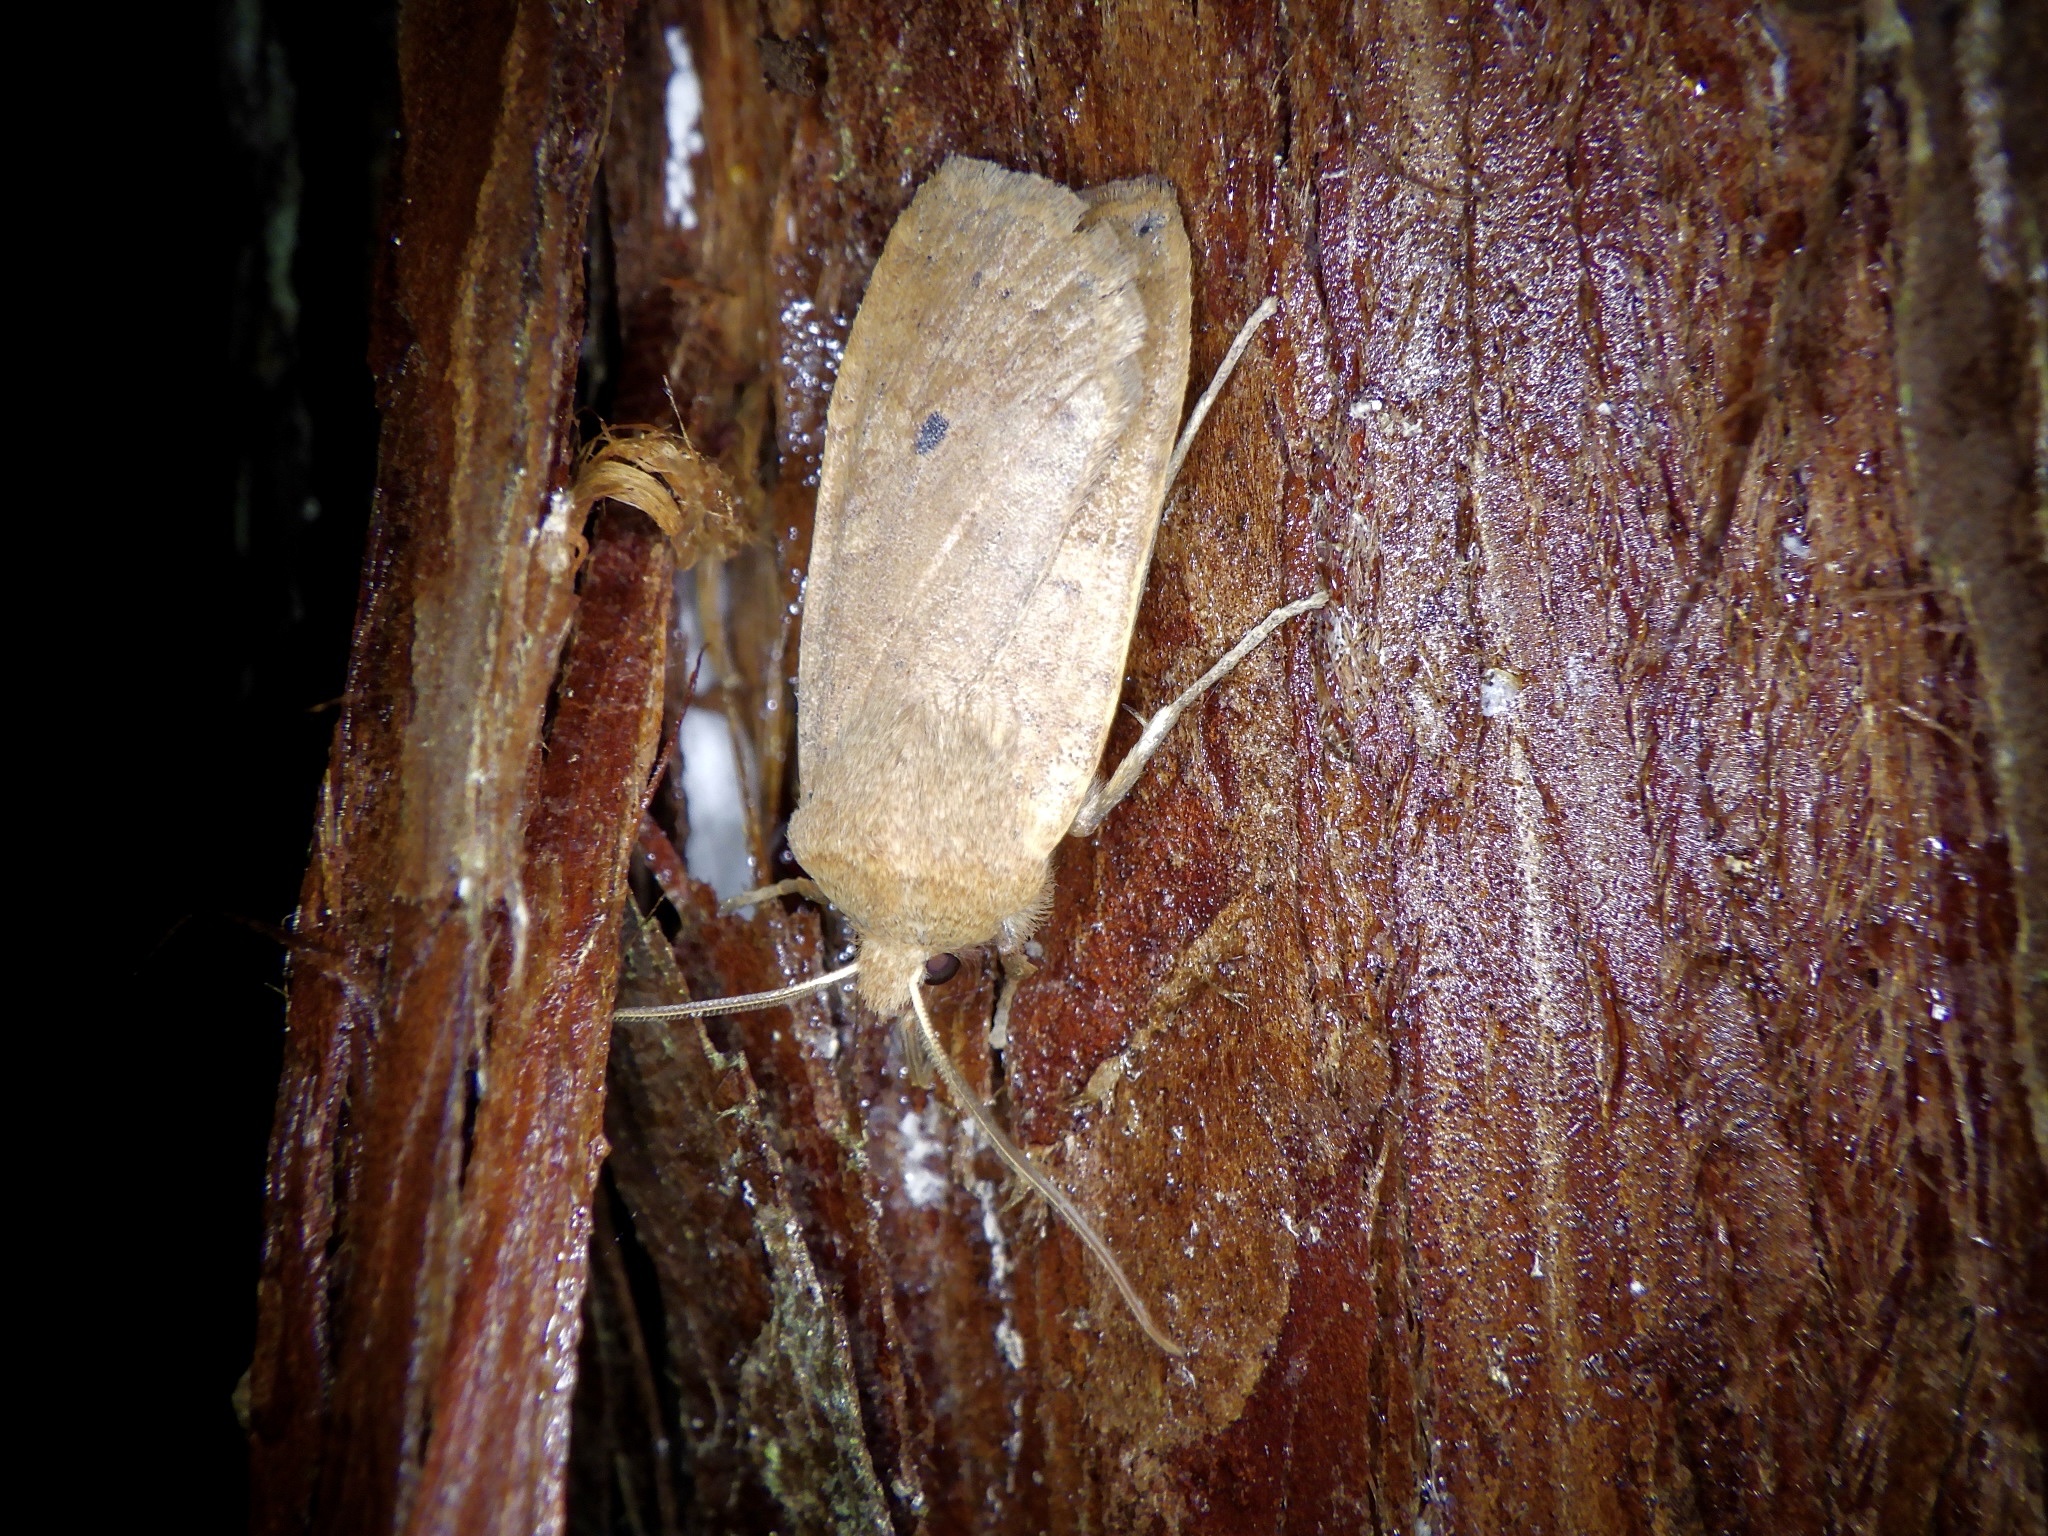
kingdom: Animalia
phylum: Arthropoda
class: Insecta
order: Lepidoptera
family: Noctuidae
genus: Conistra
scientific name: Conistra albipuncta
